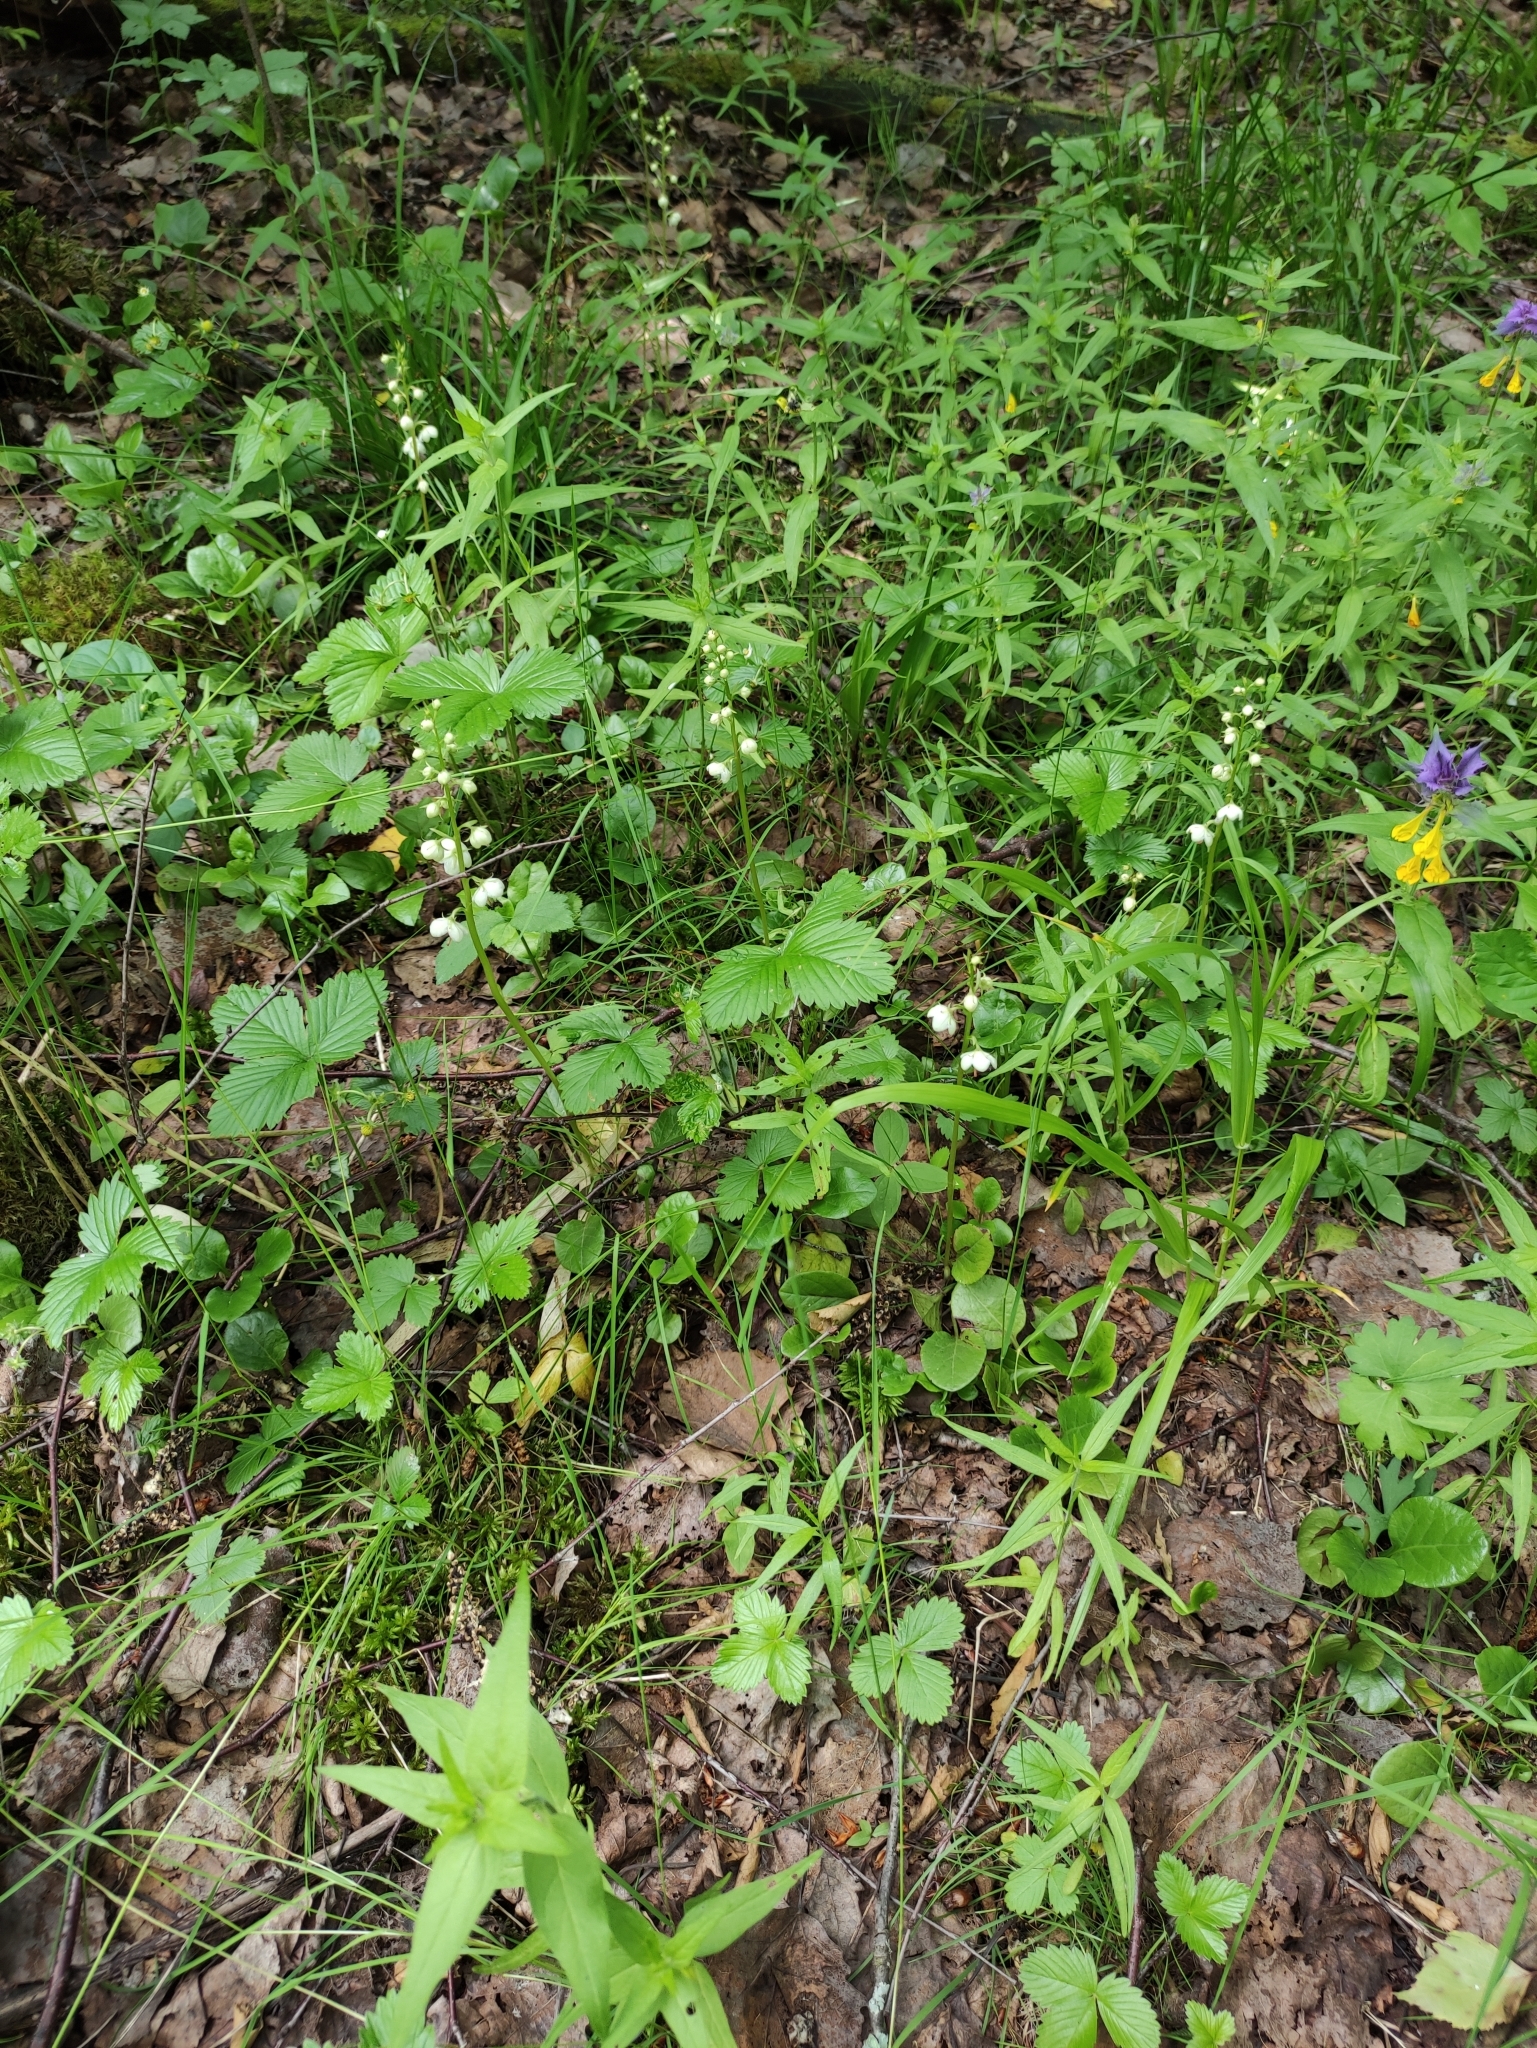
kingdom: Plantae
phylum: Tracheophyta
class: Magnoliopsida
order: Ericales
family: Ericaceae
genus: Pyrola
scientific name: Pyrola rotundifolia
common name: Round-leaved wintergreen
